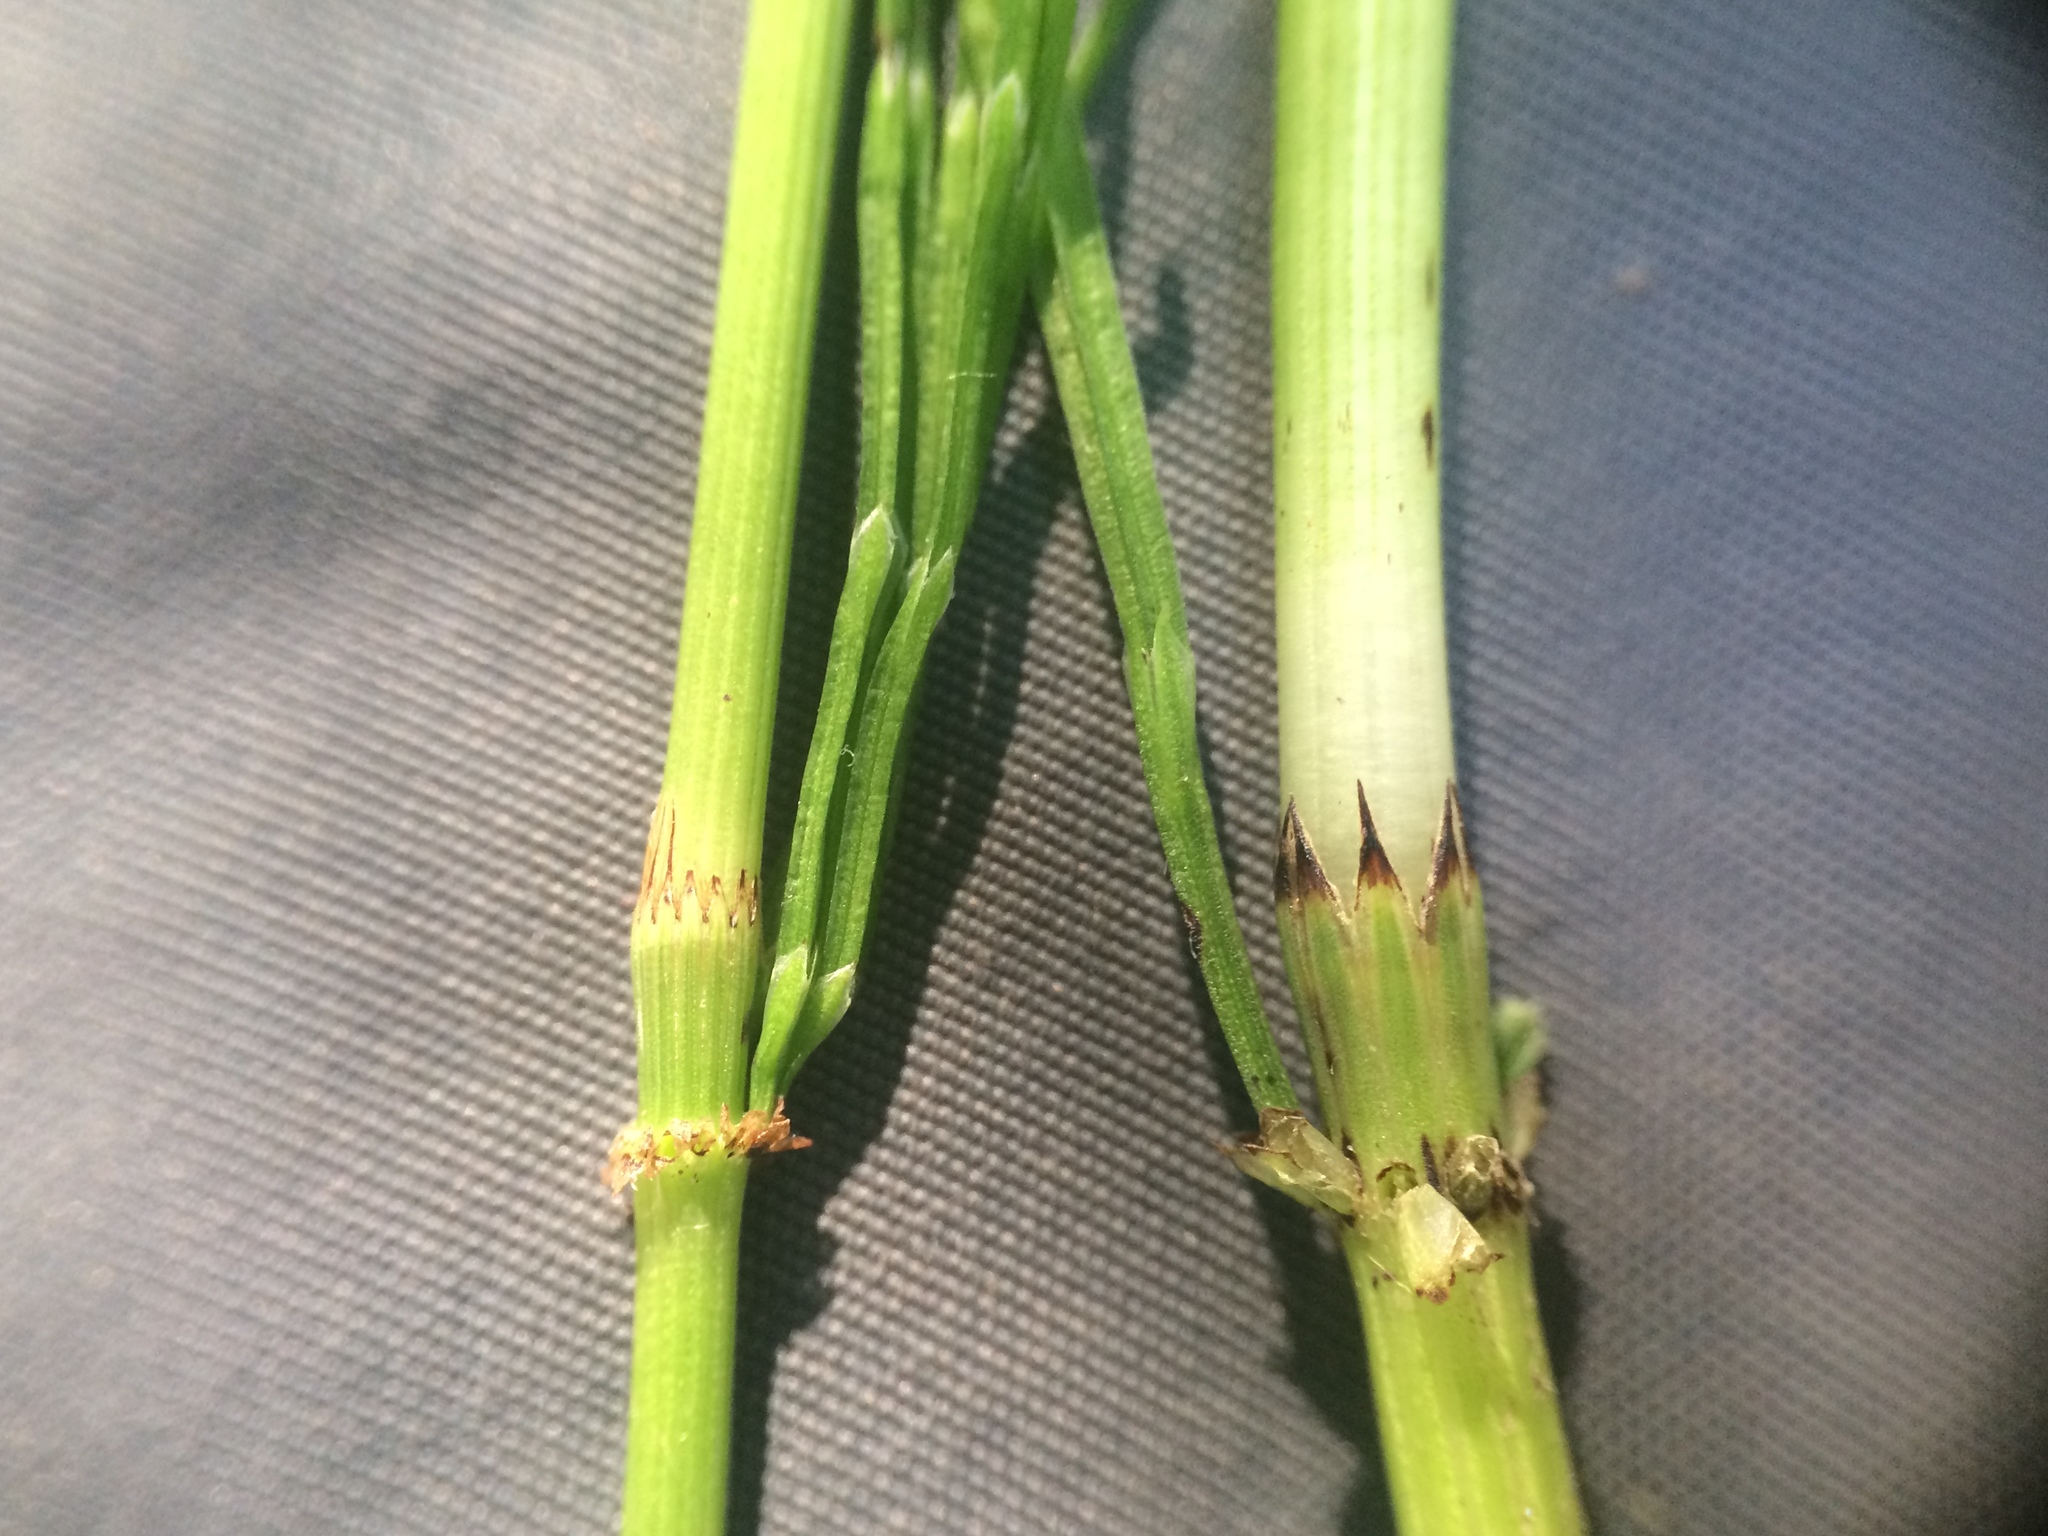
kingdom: Plantae
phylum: Tracheophyta
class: Polypodiopsida
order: Equisetales
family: Equisetaceae
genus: Equisetum
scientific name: Equisetum pratense
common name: Meadow horsetail
